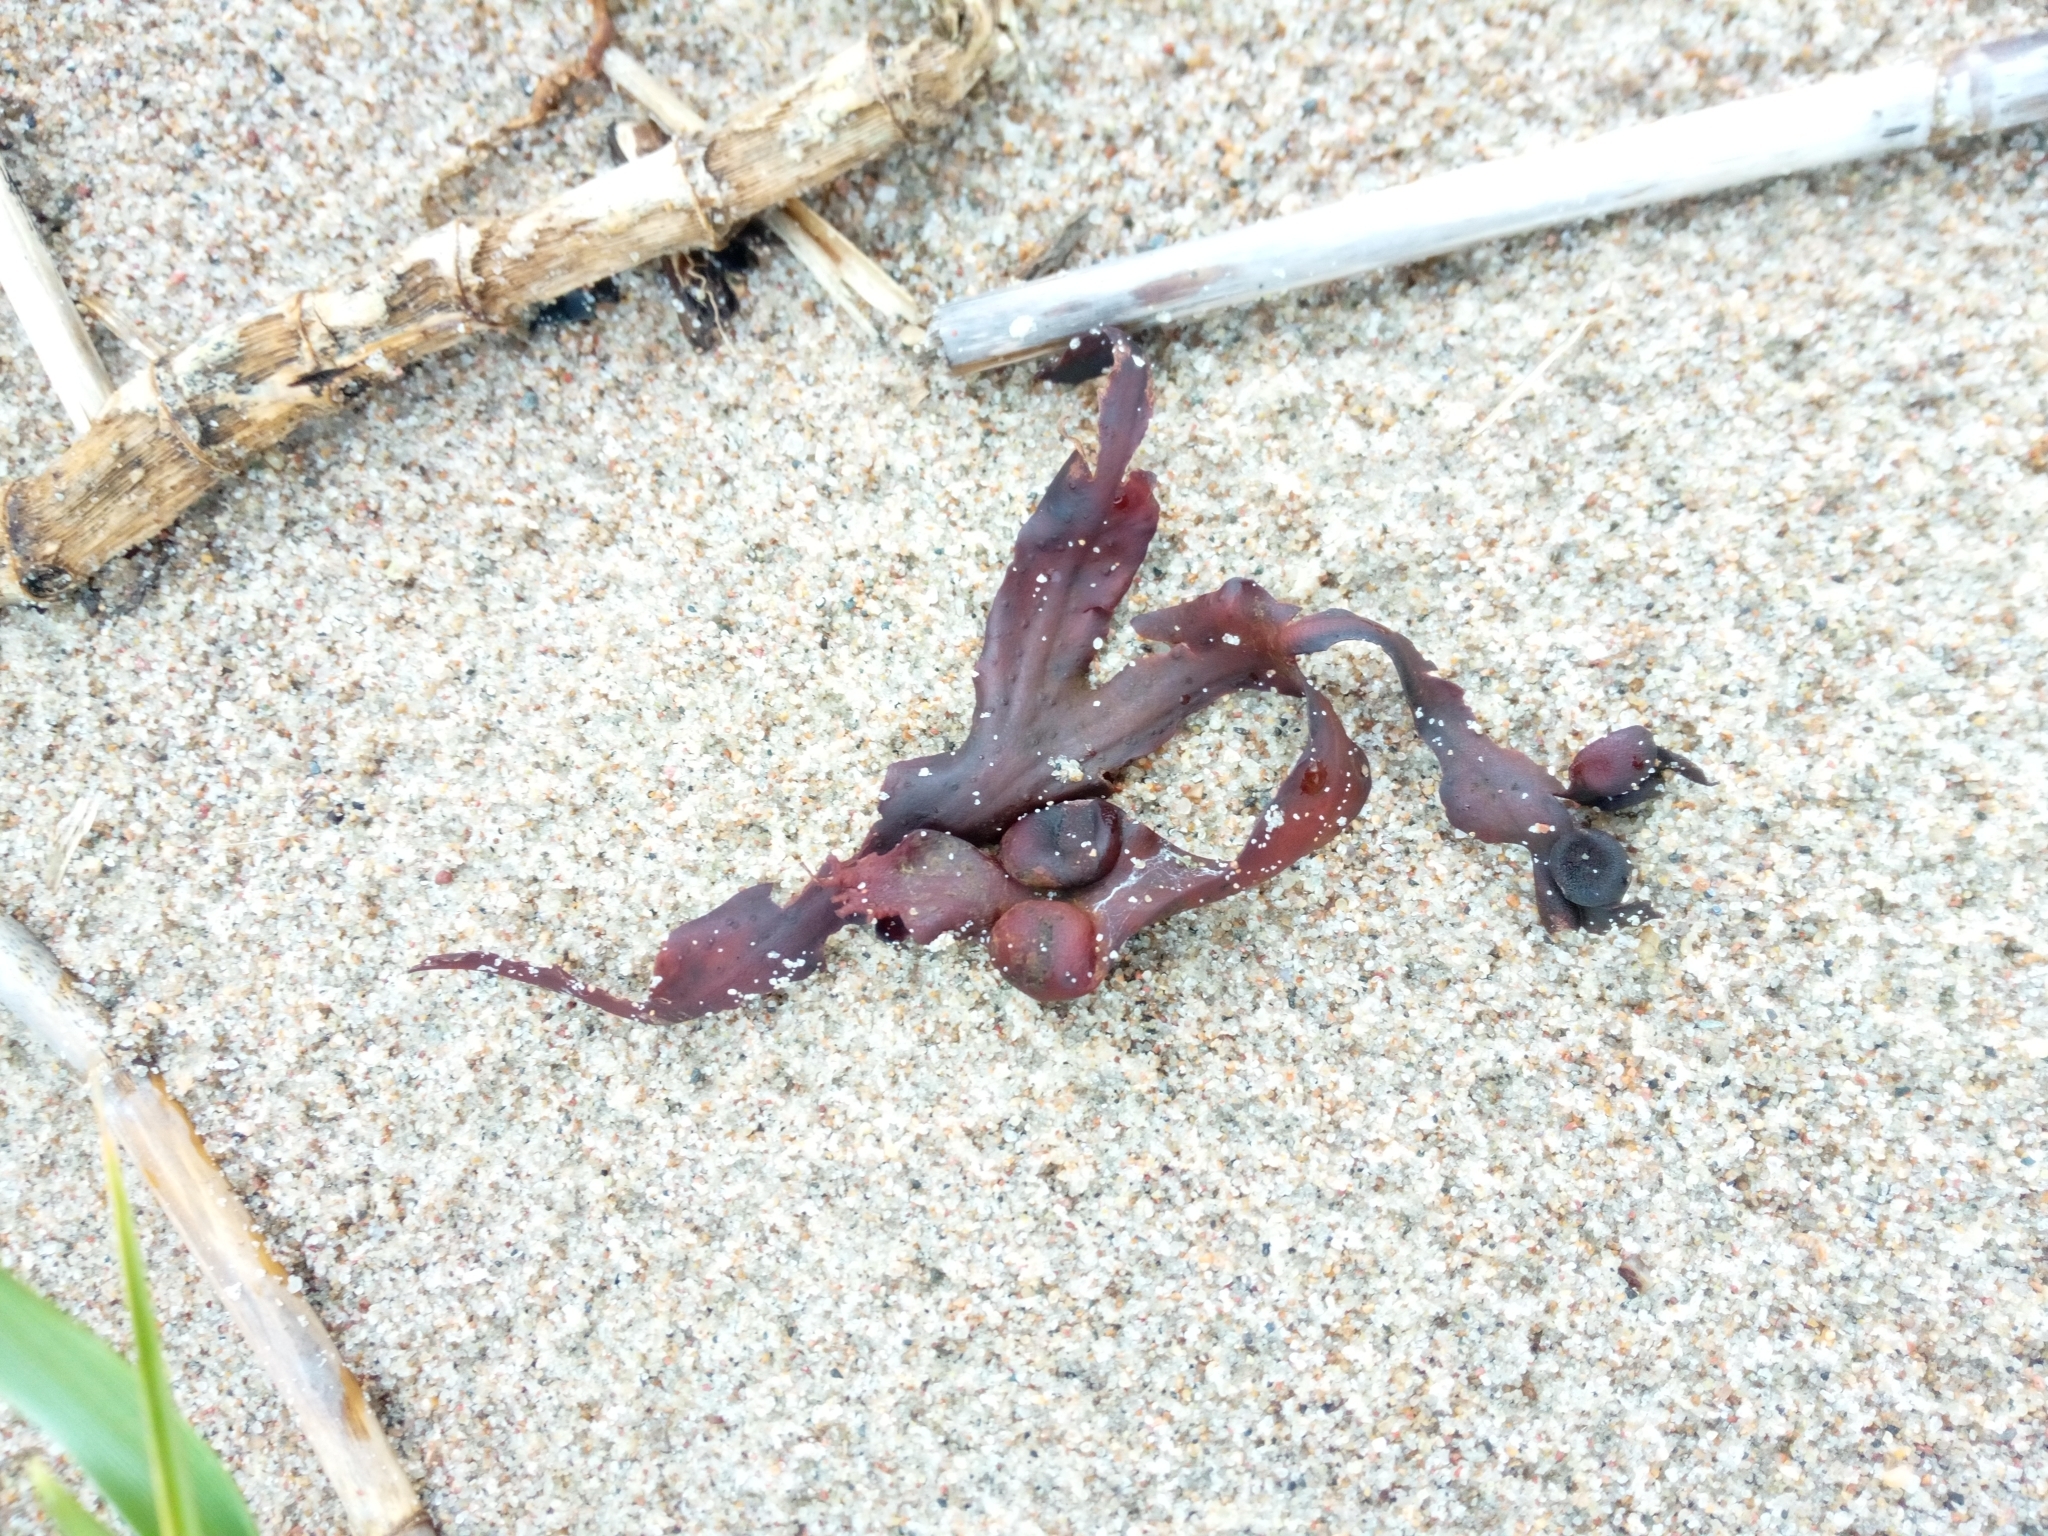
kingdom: Chromista
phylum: Ochrophyta
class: Phaeophyceae
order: Fucales
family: Fucaceae
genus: Fucus
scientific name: Fucus vesiculosus
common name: Bladder wrack
